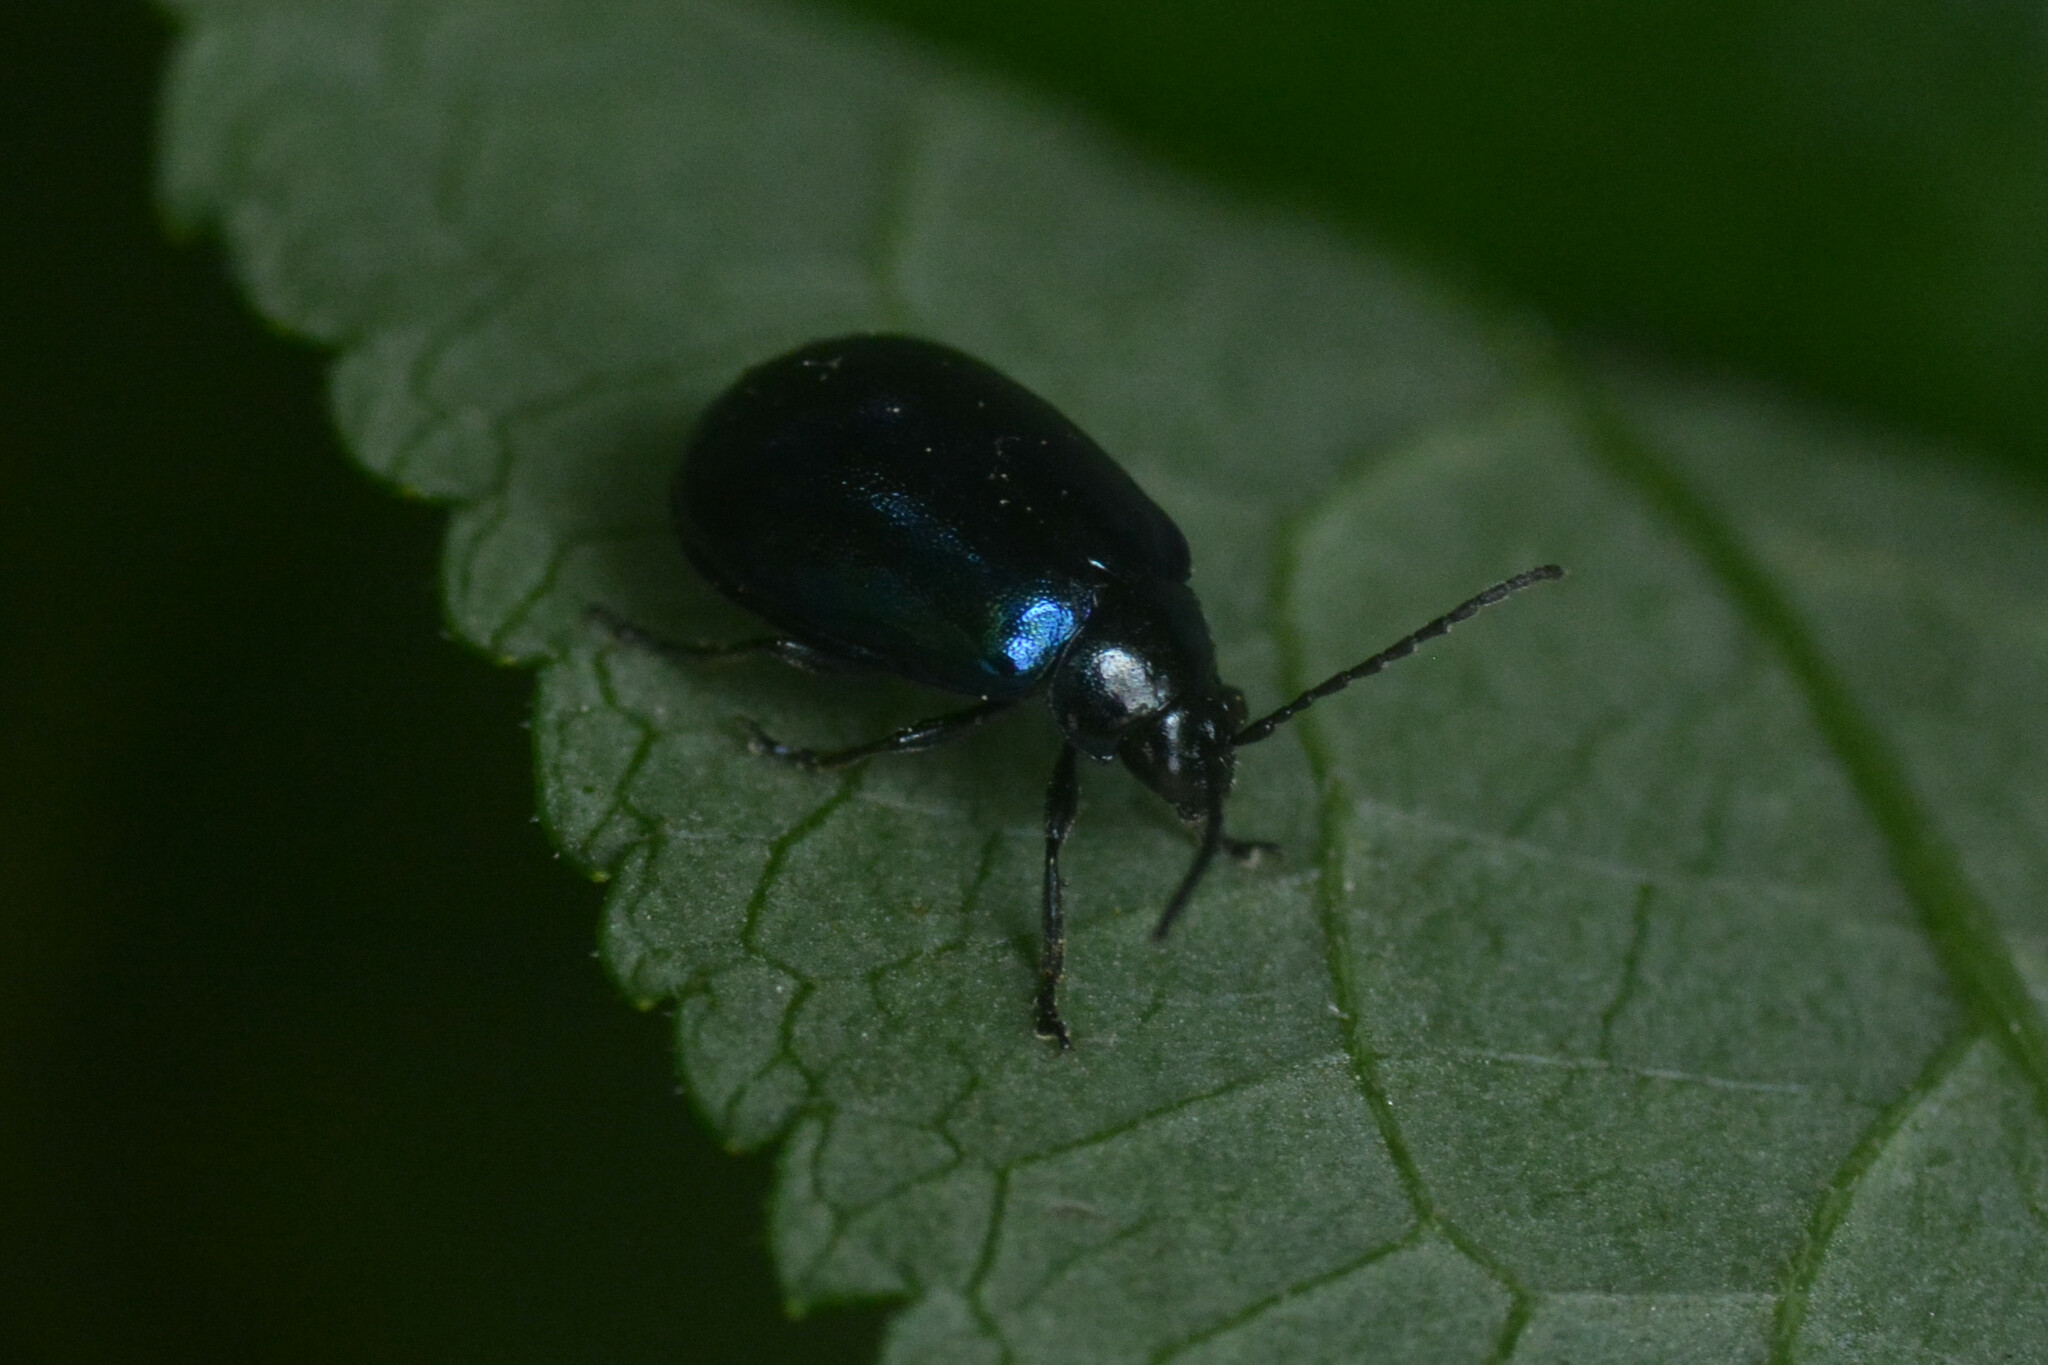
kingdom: Animalia
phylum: Arthropoda
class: Insecta
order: Coleoptera
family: Chrysomelidae
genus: Agelastica
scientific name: Agelastica alni
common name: Alder leaf beetle
